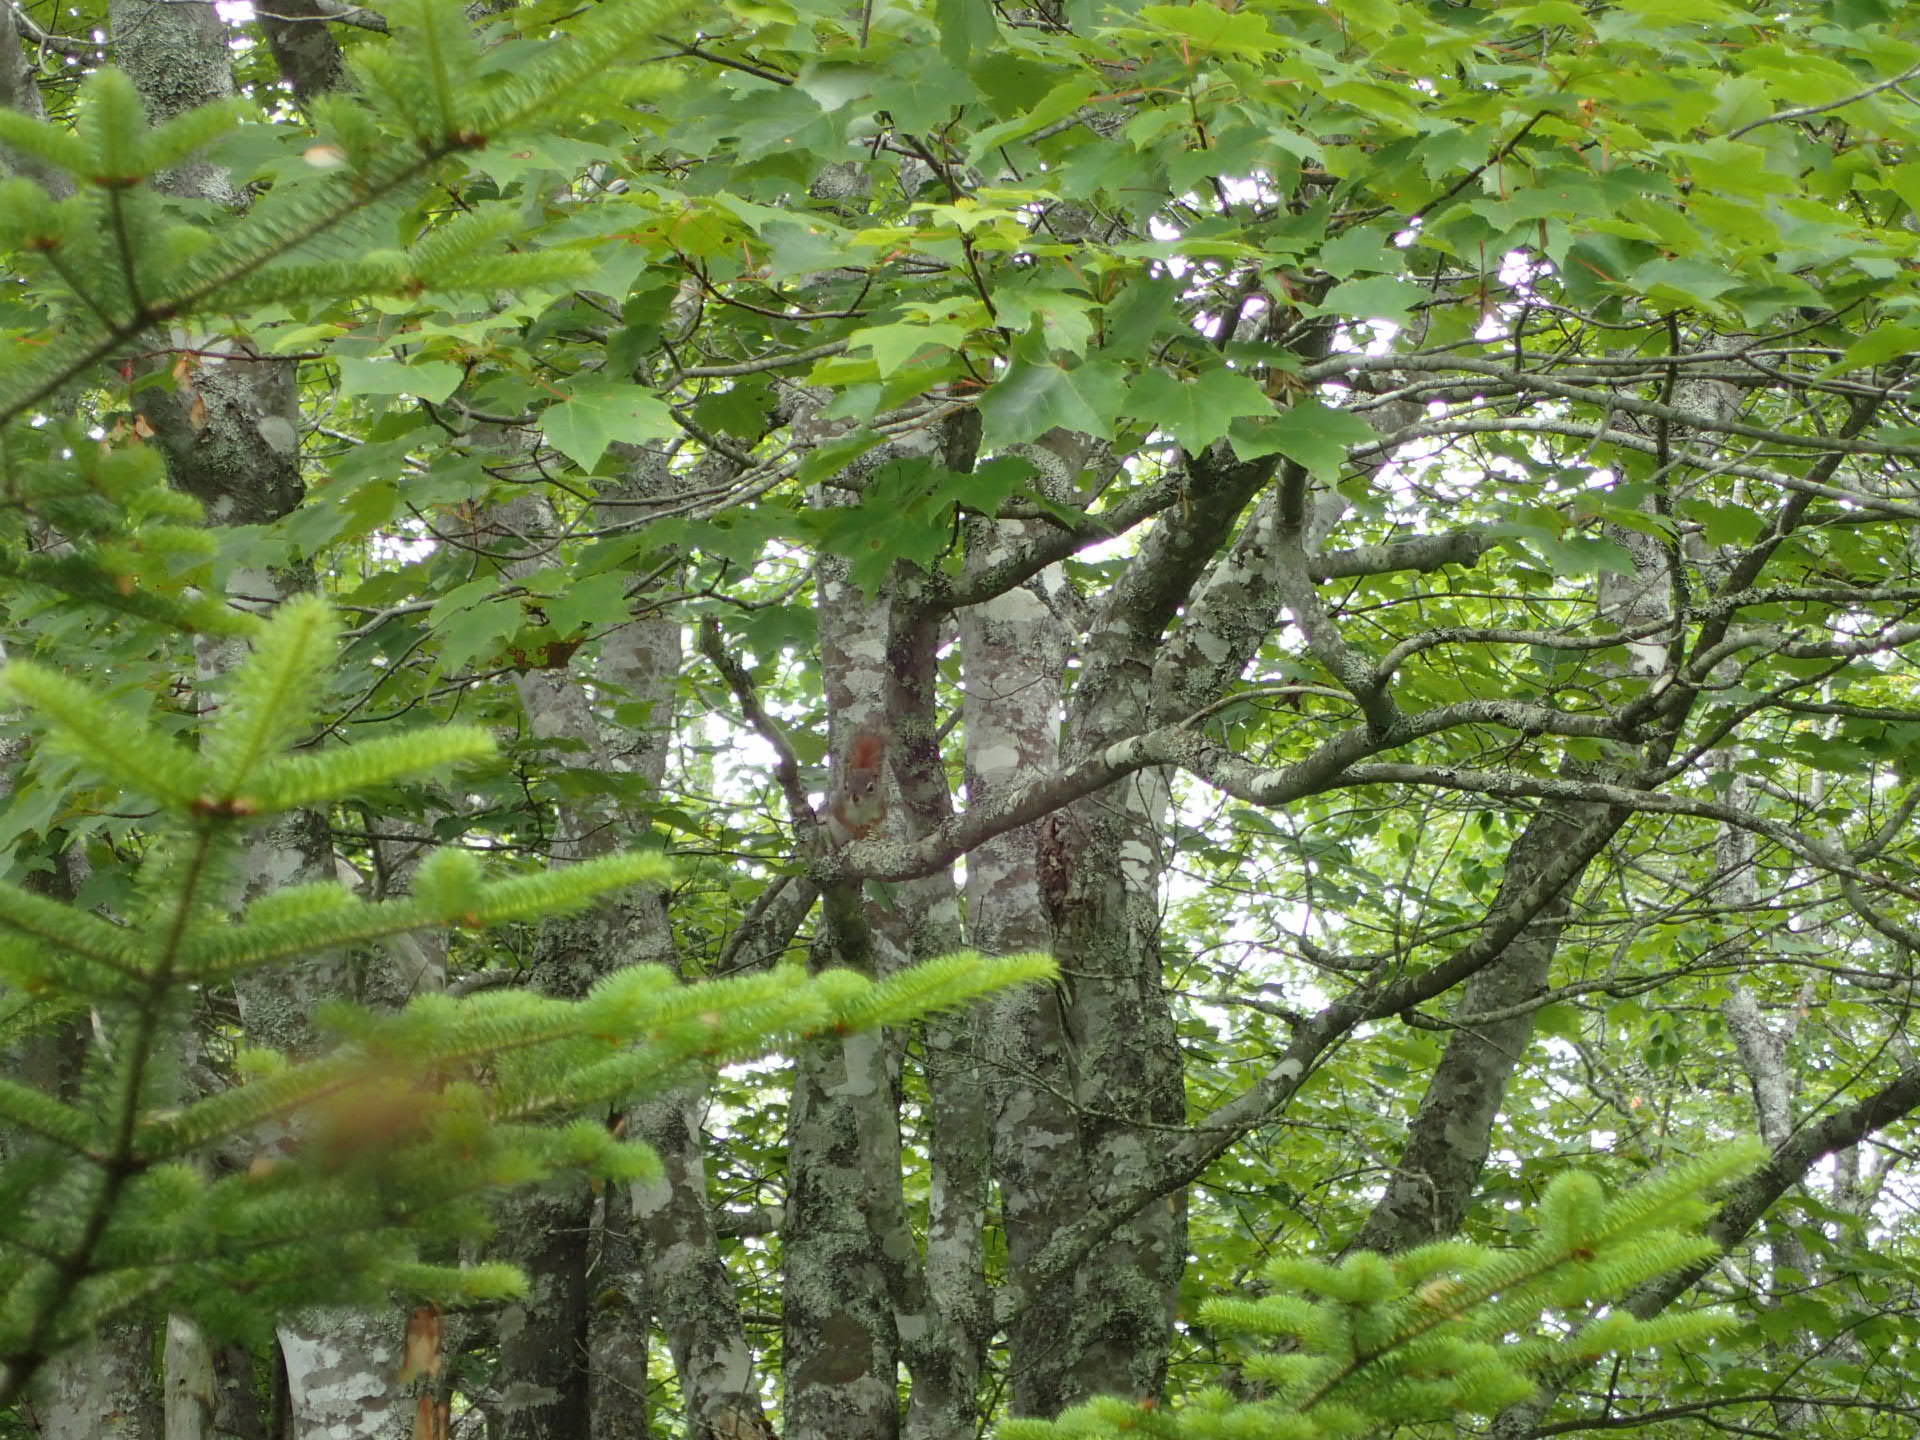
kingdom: Animalia
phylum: Chordata
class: Mammalia
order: Rodentia
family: Sciuridae
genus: Tamiasciurus
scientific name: Tamiasciurus hudsonicus
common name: Red squirrel
